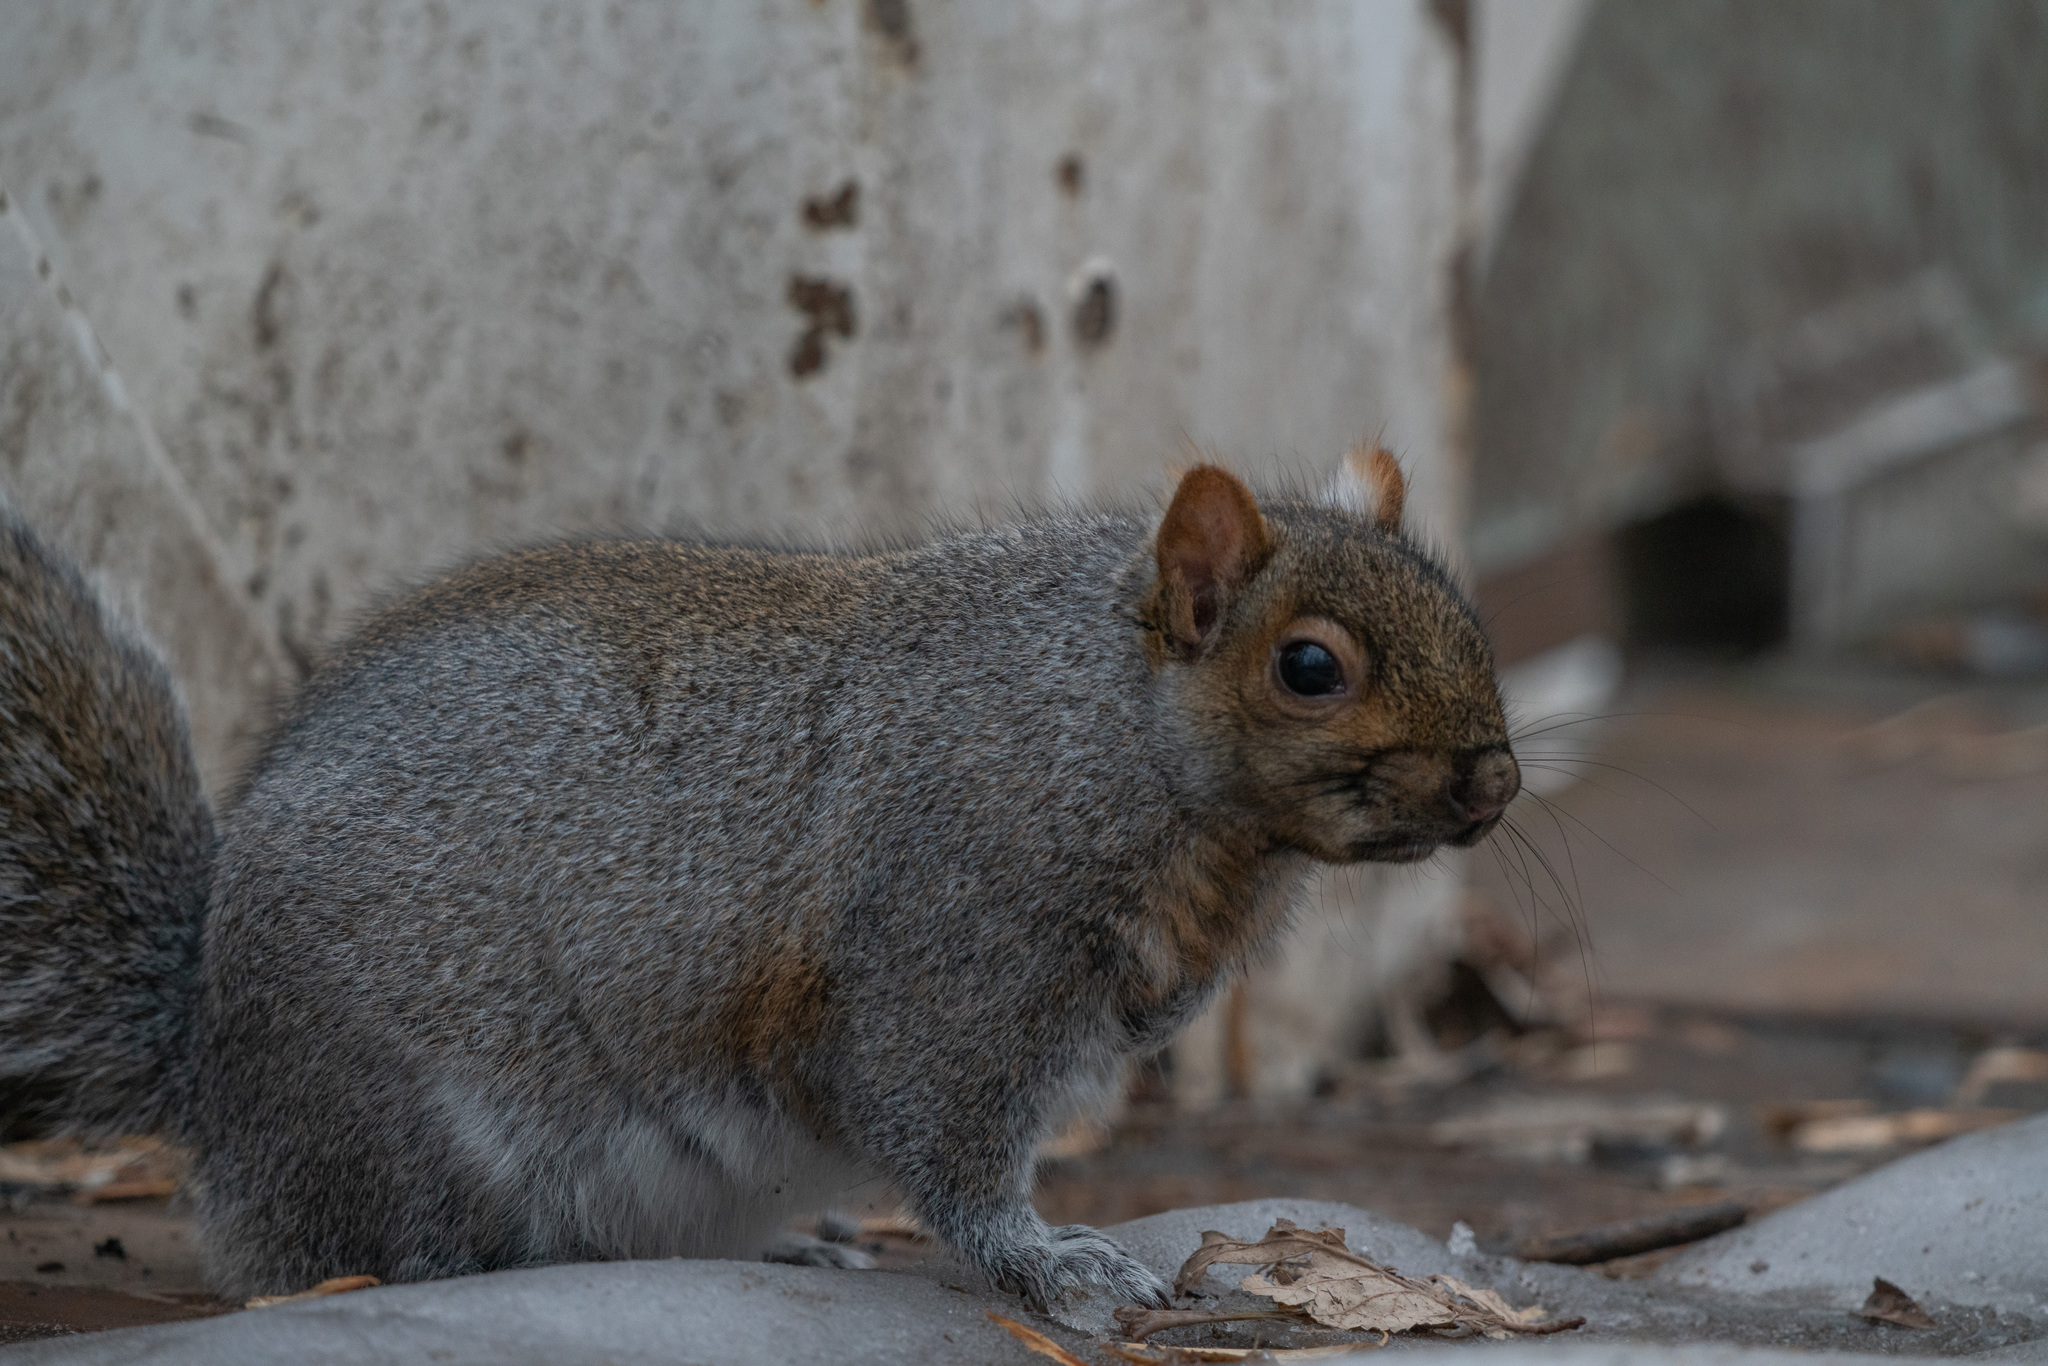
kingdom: Animalia
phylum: Chordata
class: Mammalia
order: Rodentia
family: Sciuridae
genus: Sciurus
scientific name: Sciurus carolinensis
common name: Eastern gray squirrel
